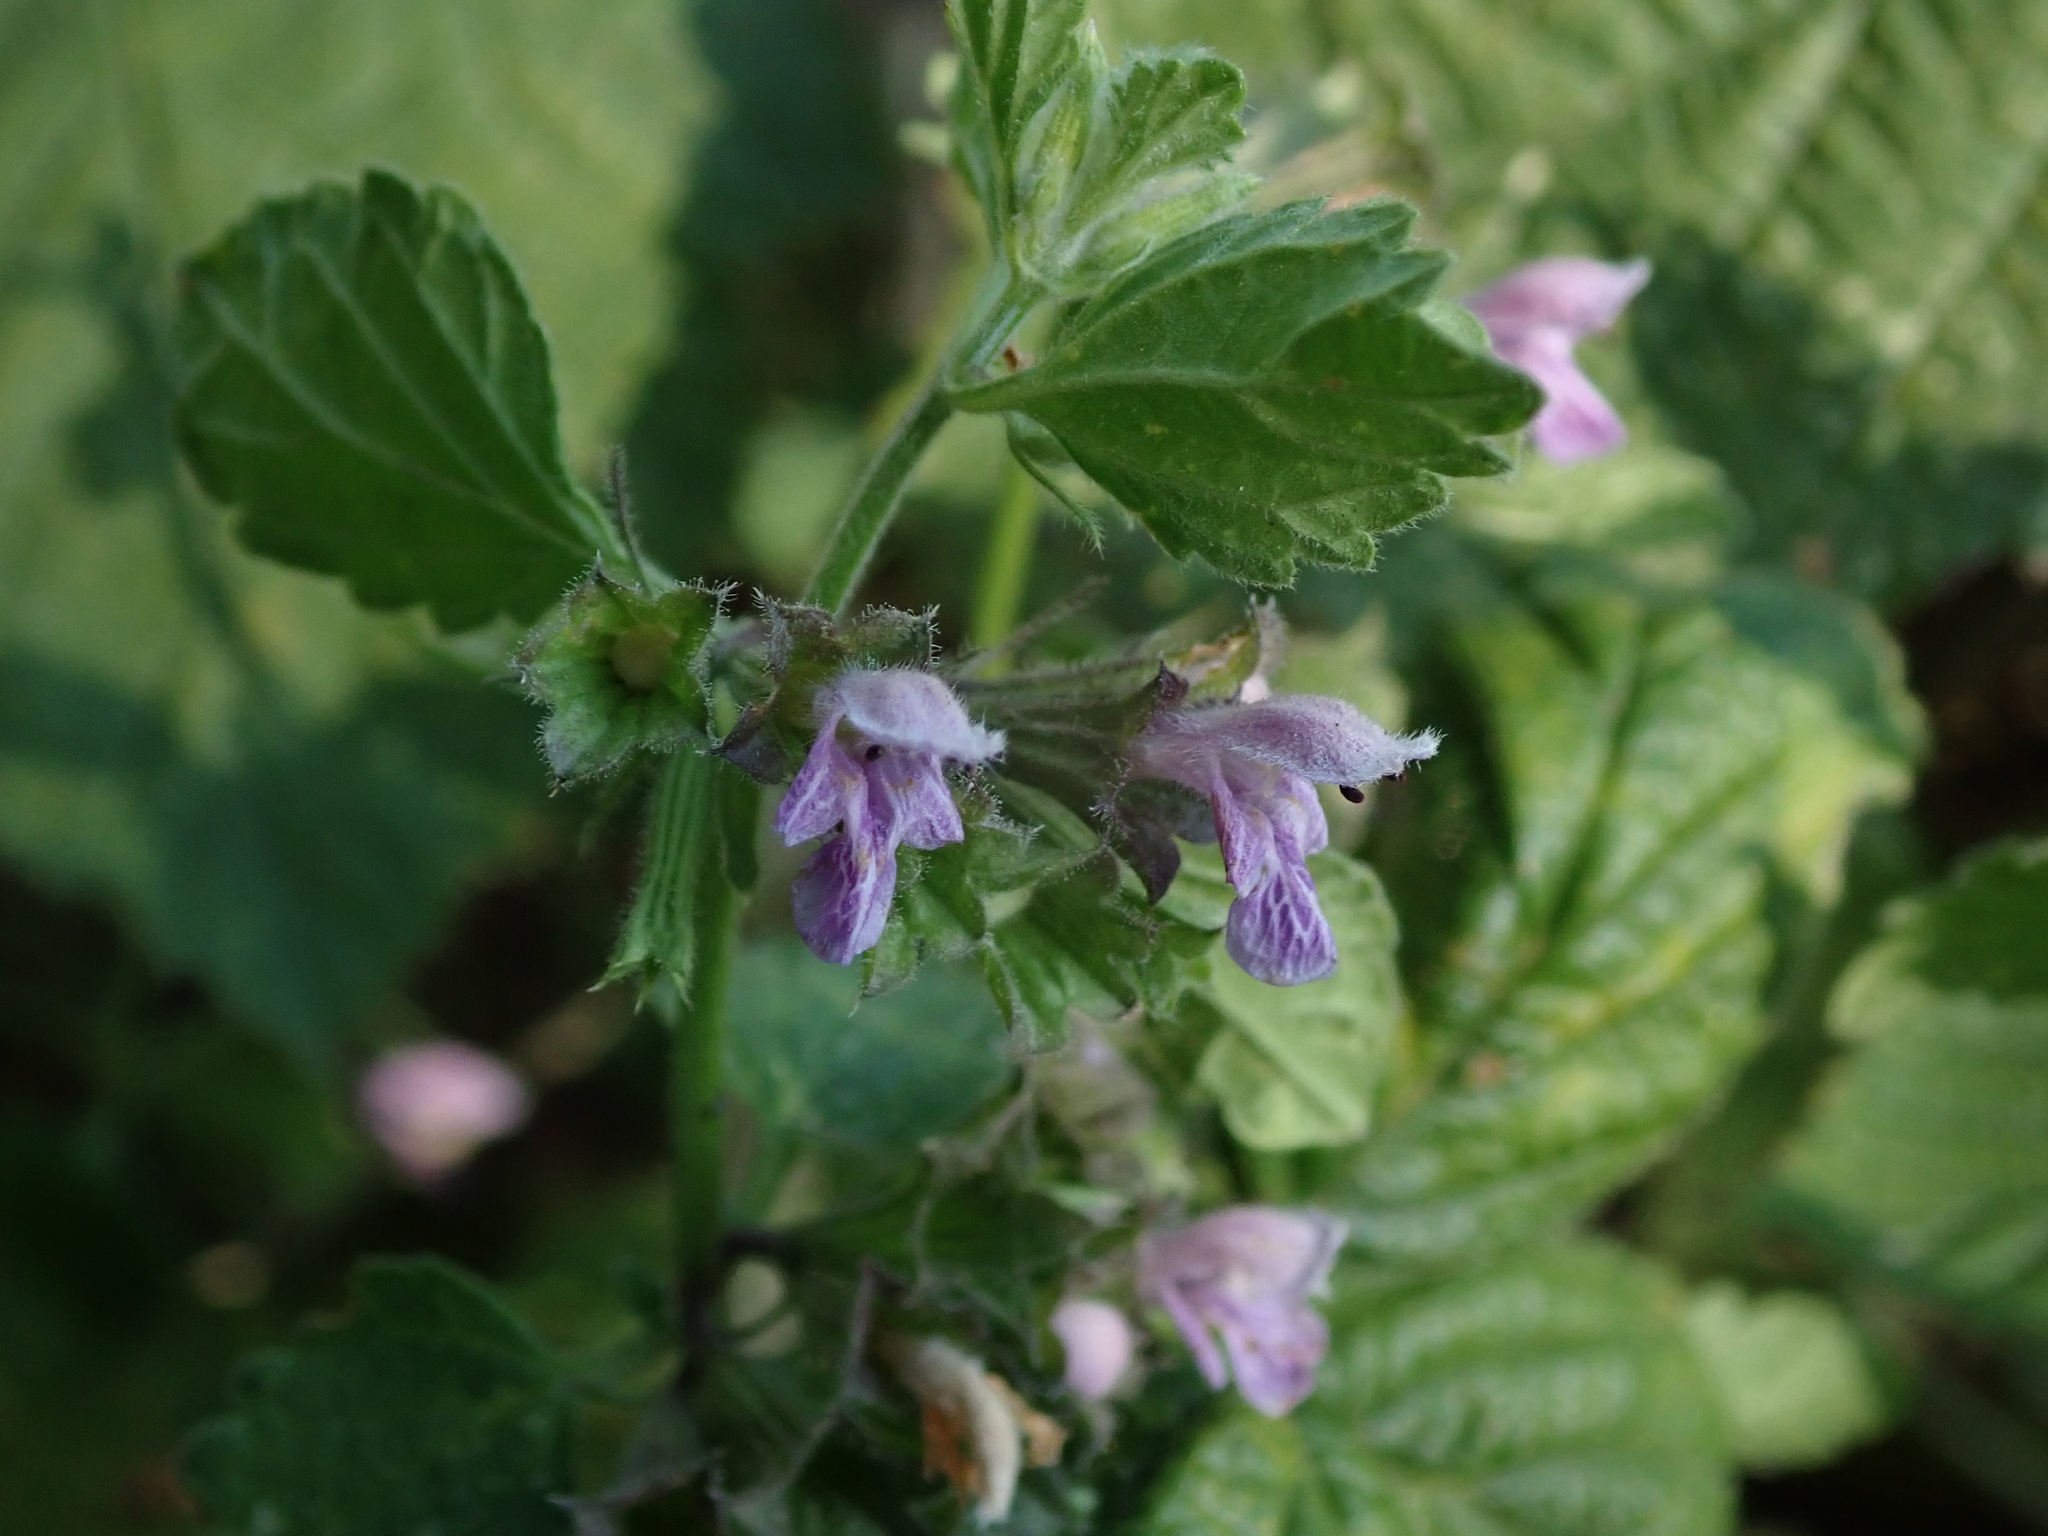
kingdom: Plantae
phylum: Tracheophyta
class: Magnoliopsida
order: Lamiales
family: Lamiaceae
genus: Ballota
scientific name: Ballota nigra
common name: Black horehound
